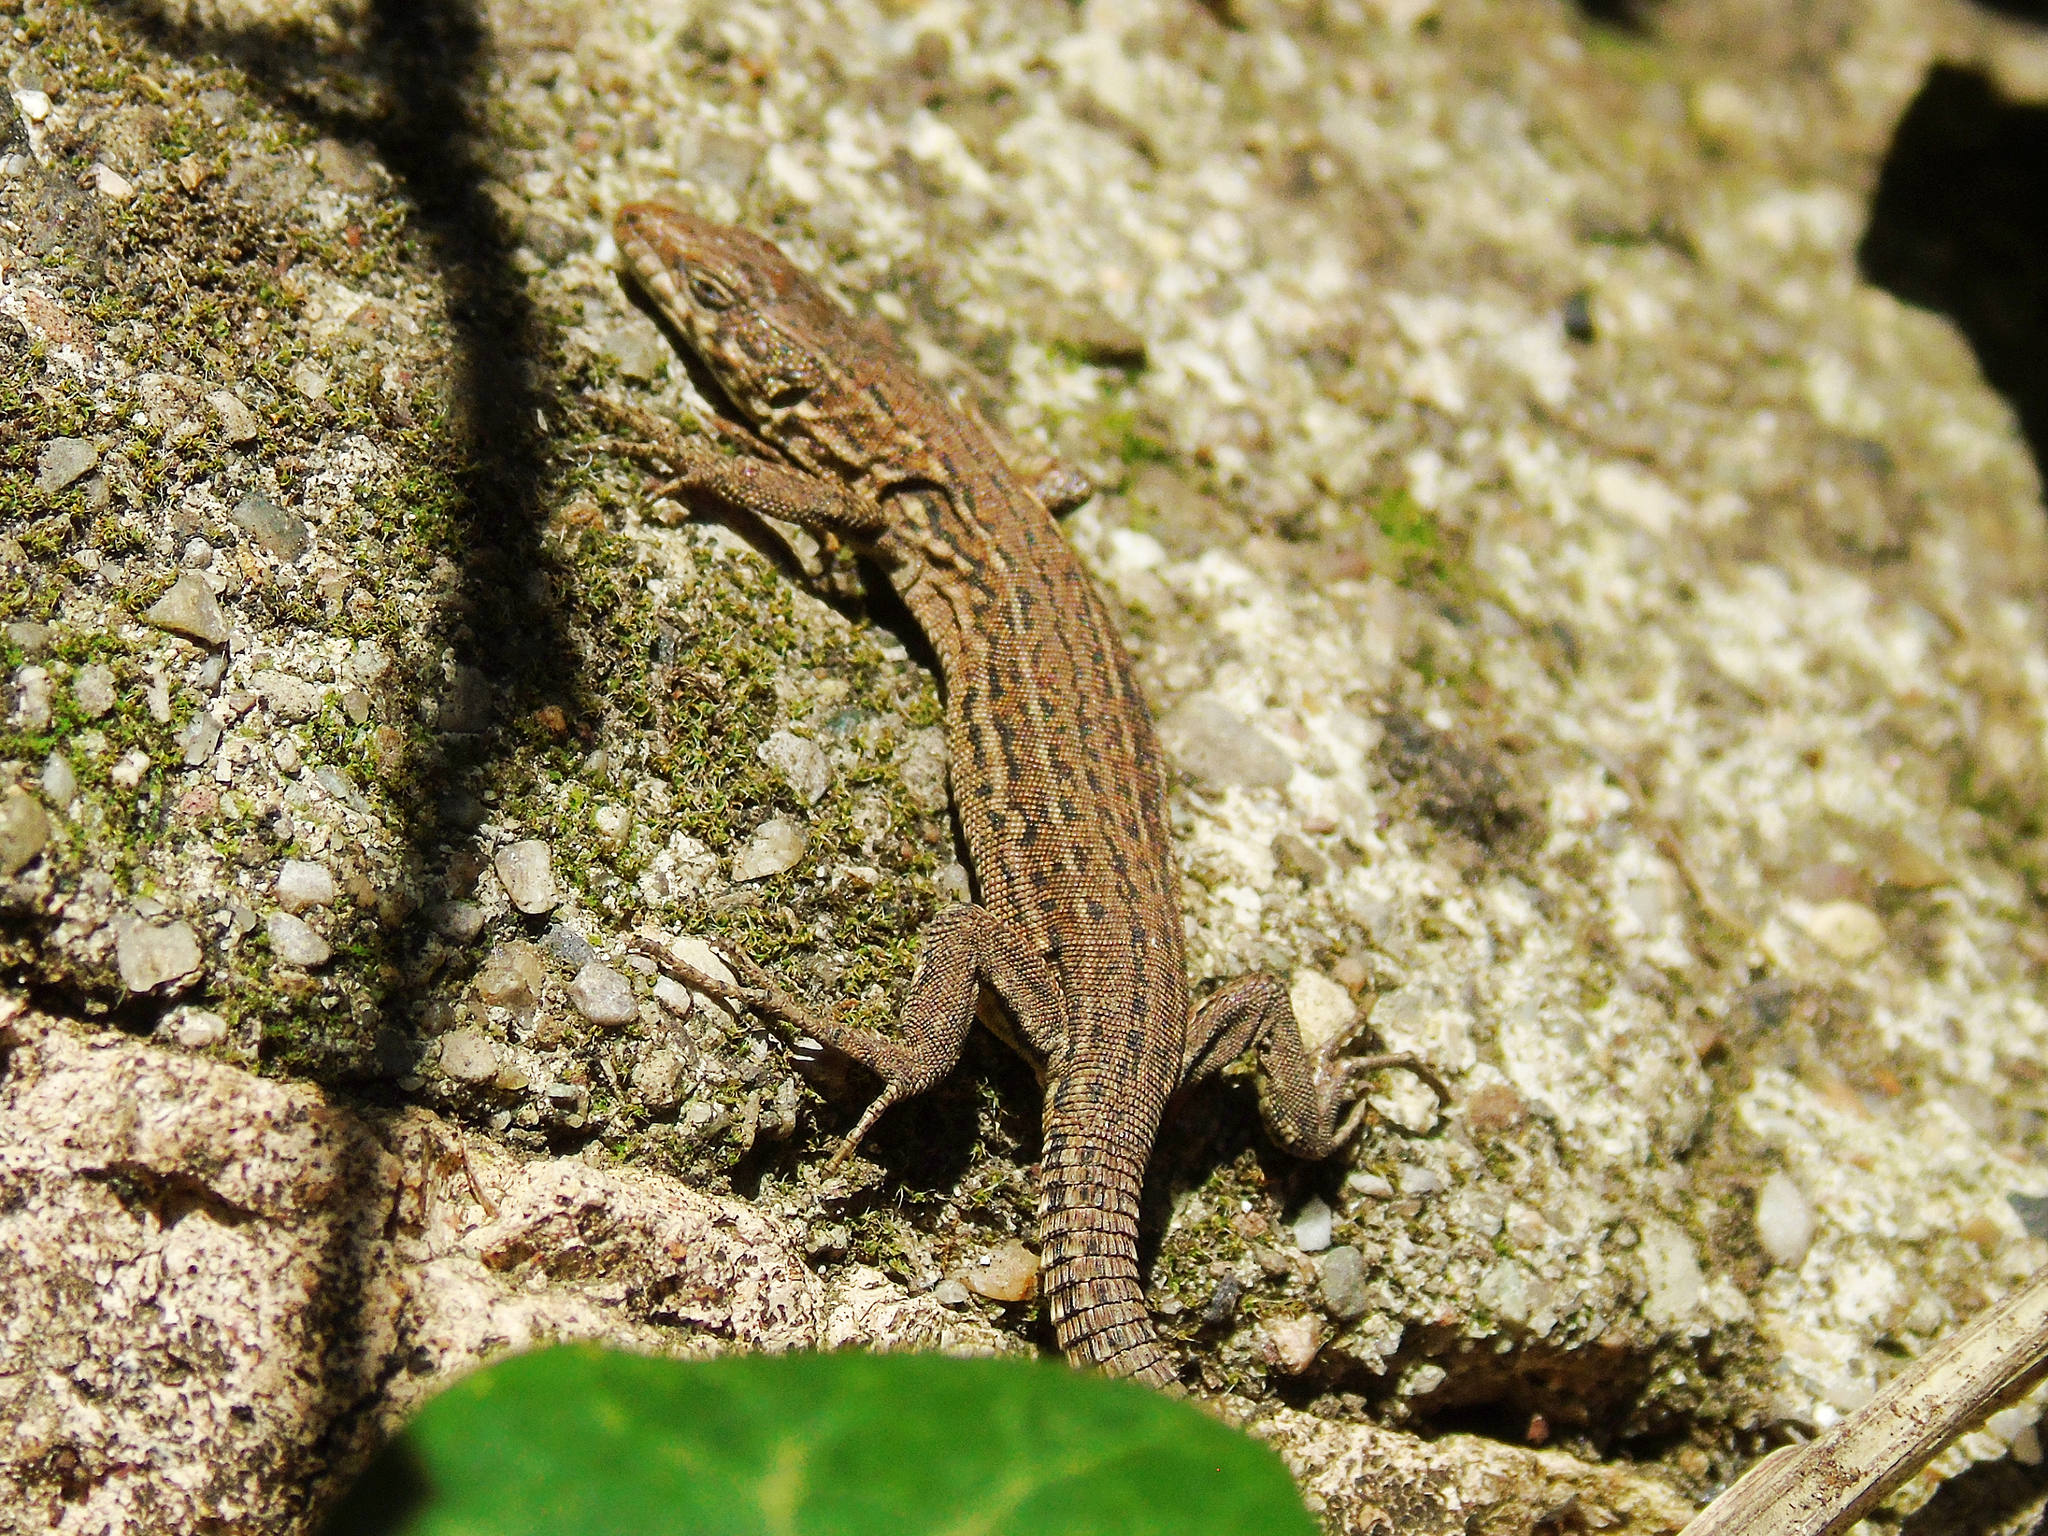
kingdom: Animalia
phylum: Chordata
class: Squamata
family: Lacertidae
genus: Podarcis
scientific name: Podarcis liolepis
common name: Catalonian wall lizard
